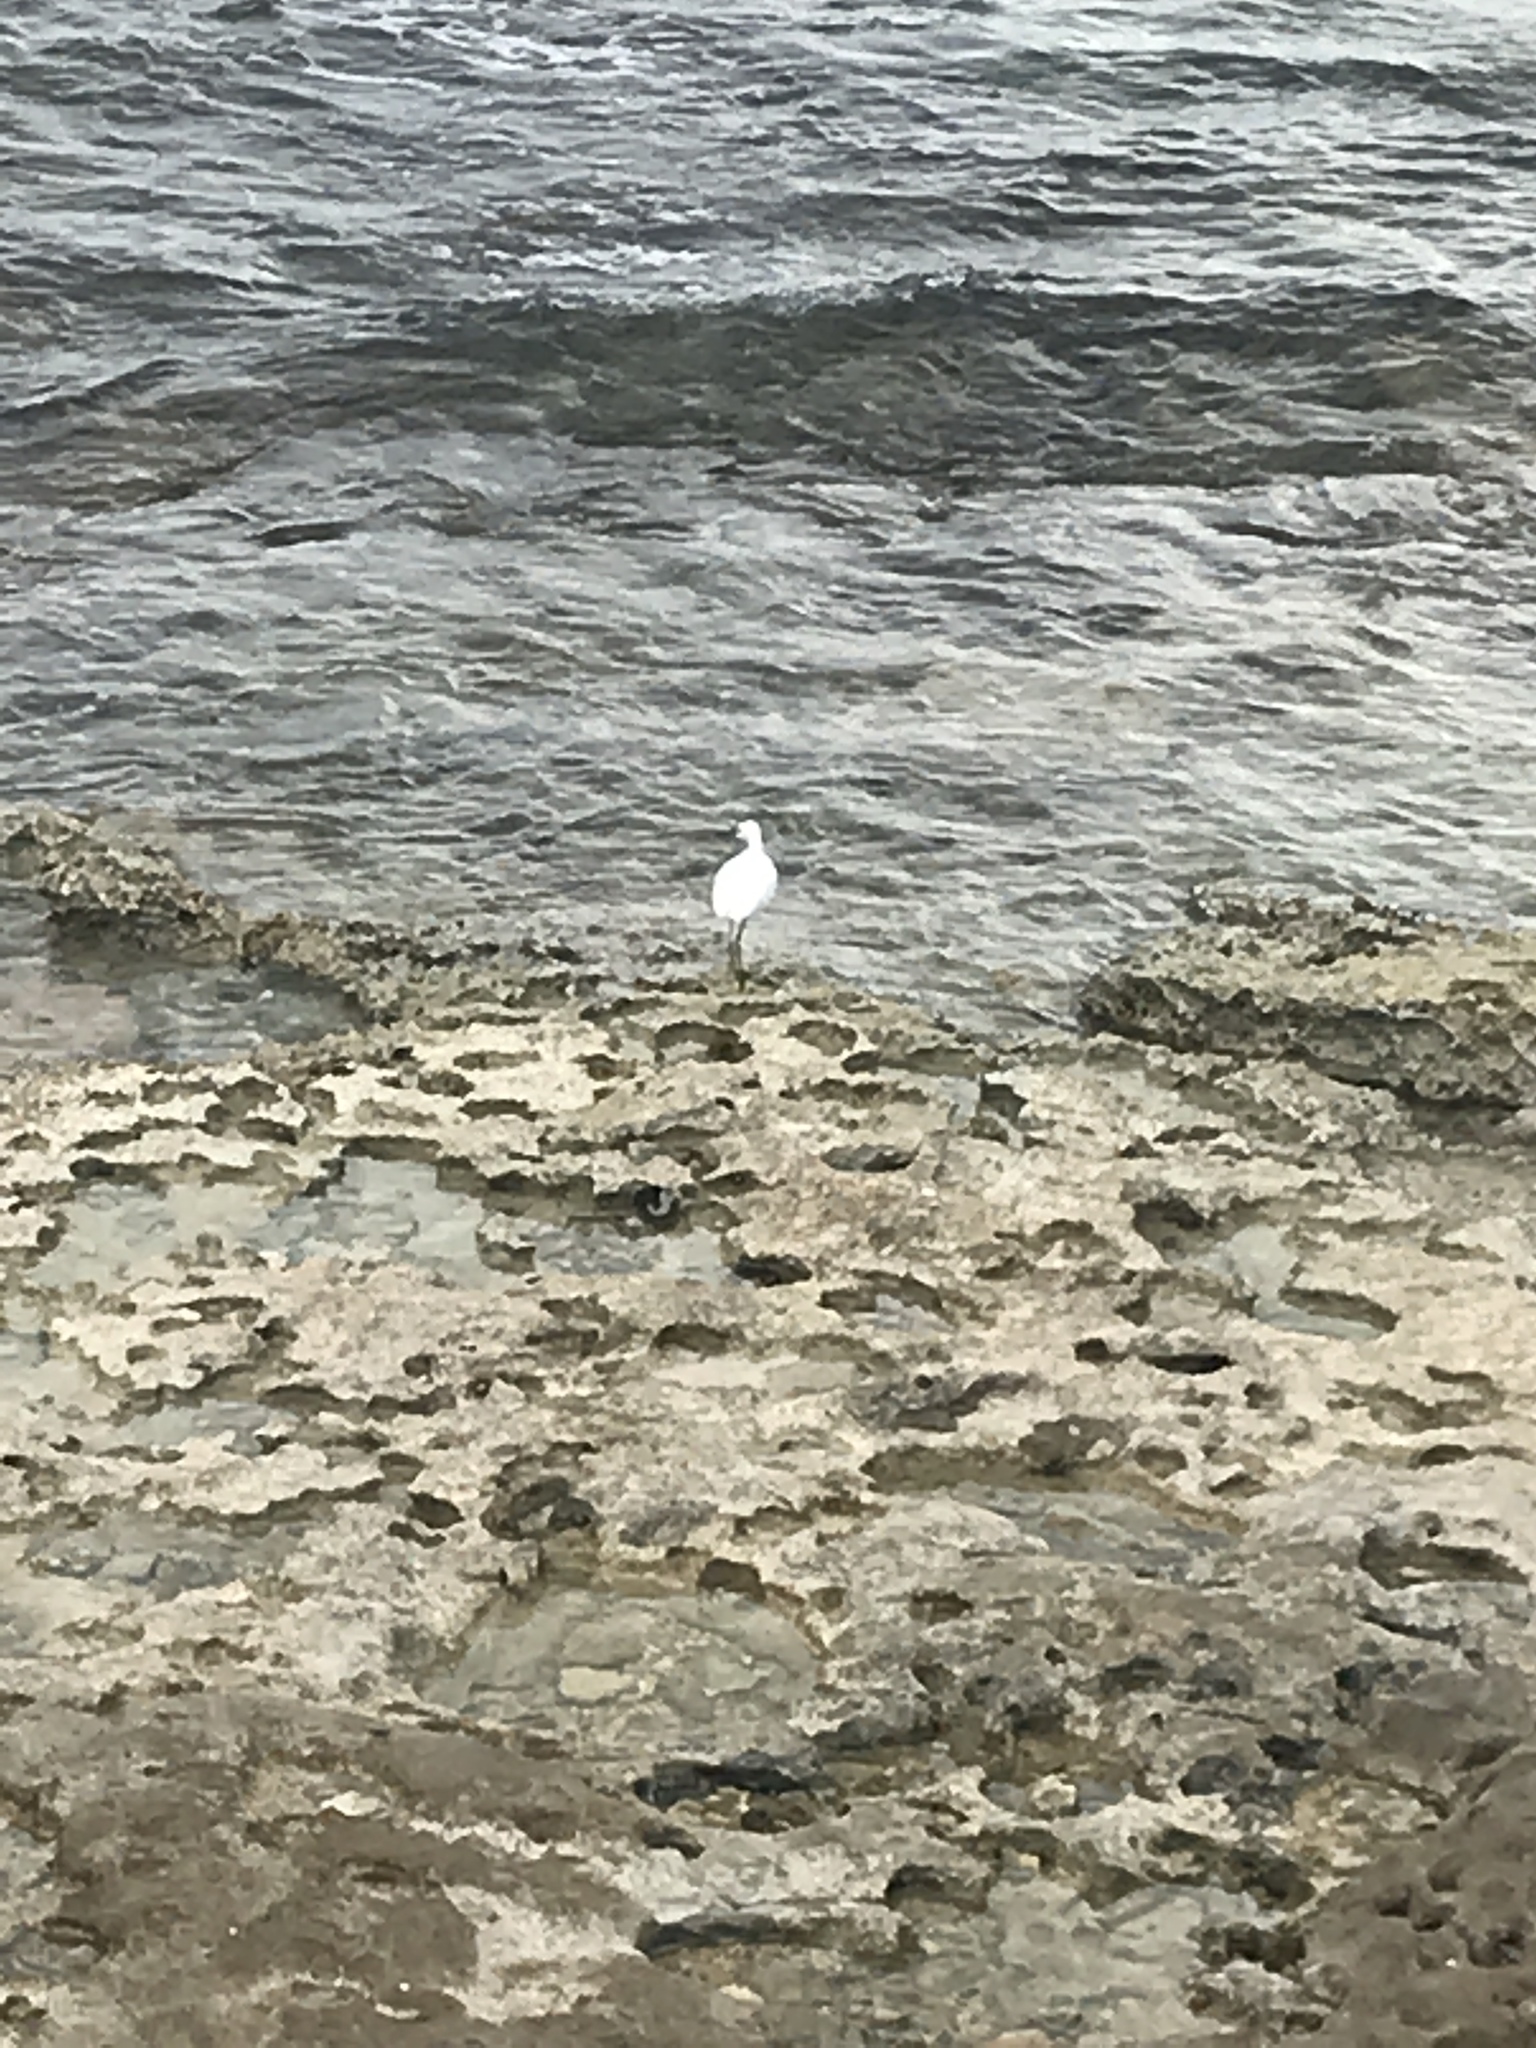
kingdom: Animalia
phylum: Chordata
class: Aves
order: Pelecaniformes
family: Ardeidae
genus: Egretta
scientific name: Egretta thula
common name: Snowy egret
